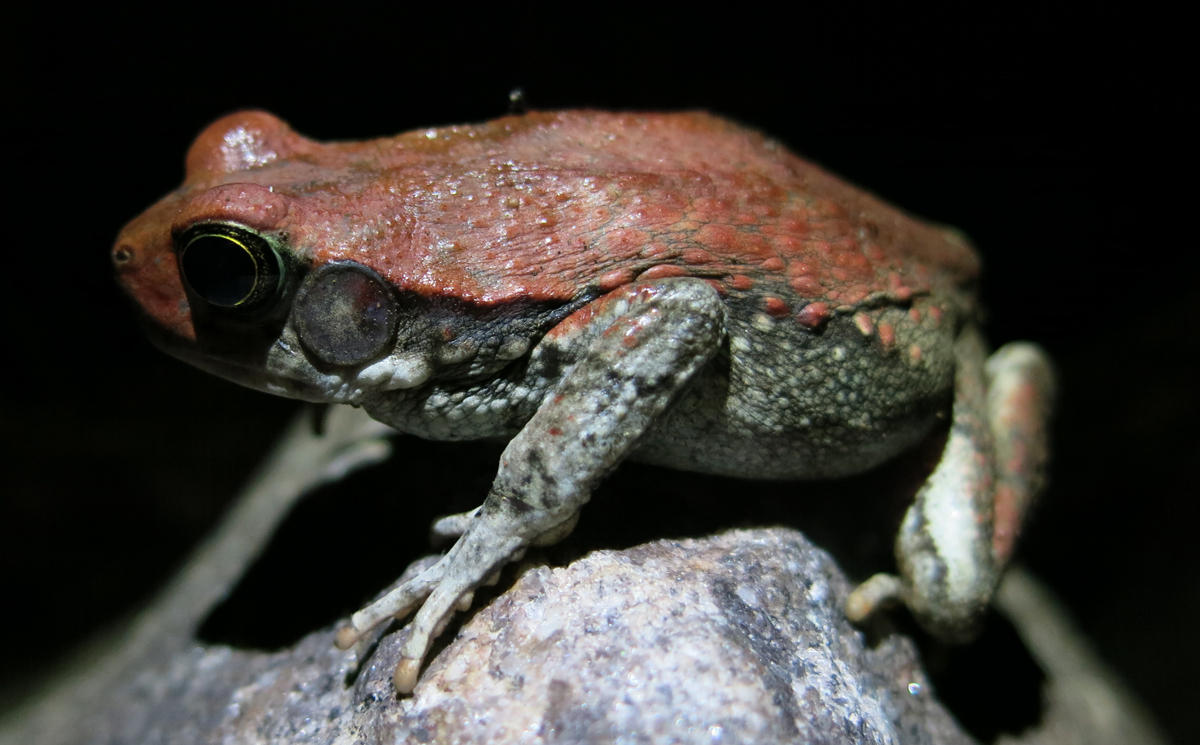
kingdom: Animalia
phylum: Chordata
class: Amphibia
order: Anura
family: Bufonidae
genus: Schismaderma
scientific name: Schismaderma carens
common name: African split-skin toad
